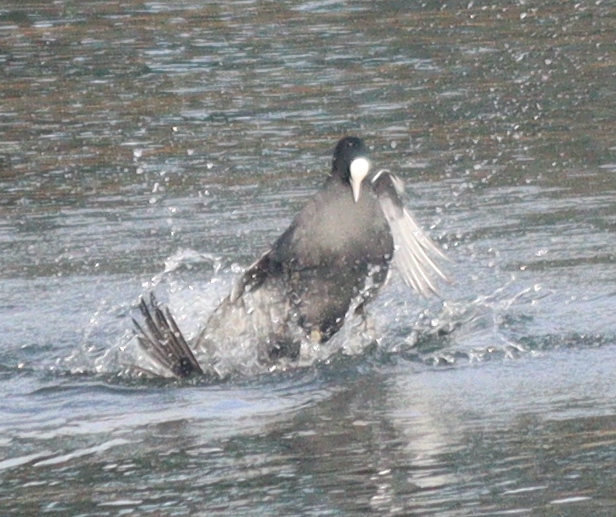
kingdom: Animalia
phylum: Chordata
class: Aves
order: Gruiformes
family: Rallidae
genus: Fulica
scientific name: Fulica atra
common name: Eurasian coot
